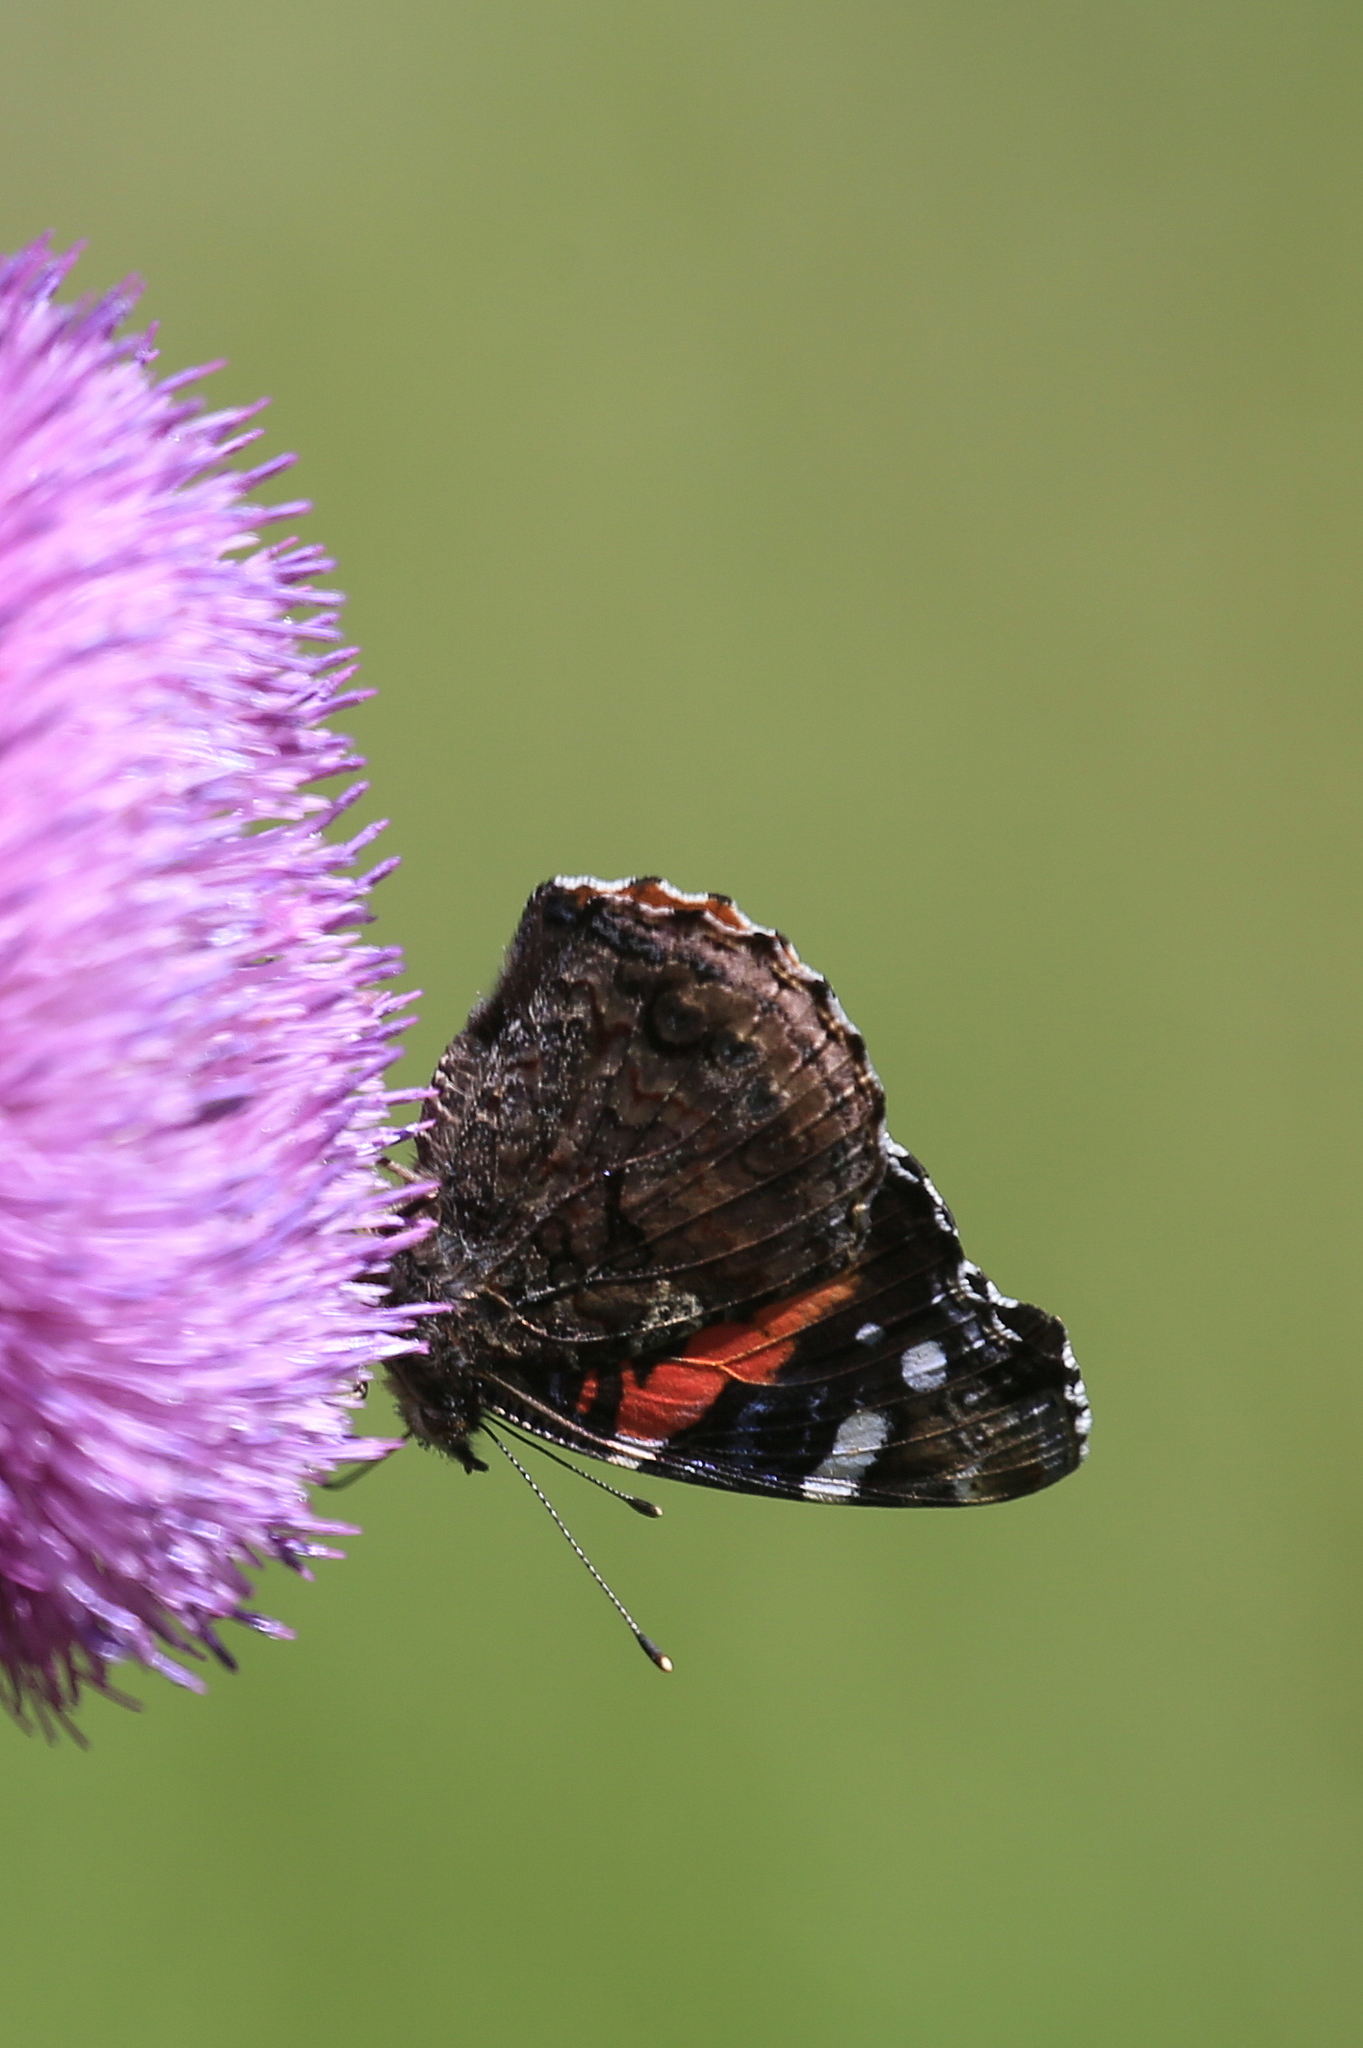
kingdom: Animalia
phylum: Arthropoda
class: Insecta
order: Lepidoptera
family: Nymphalidae
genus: Vanessa
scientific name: Vanessa atalanta
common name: Red admiral
